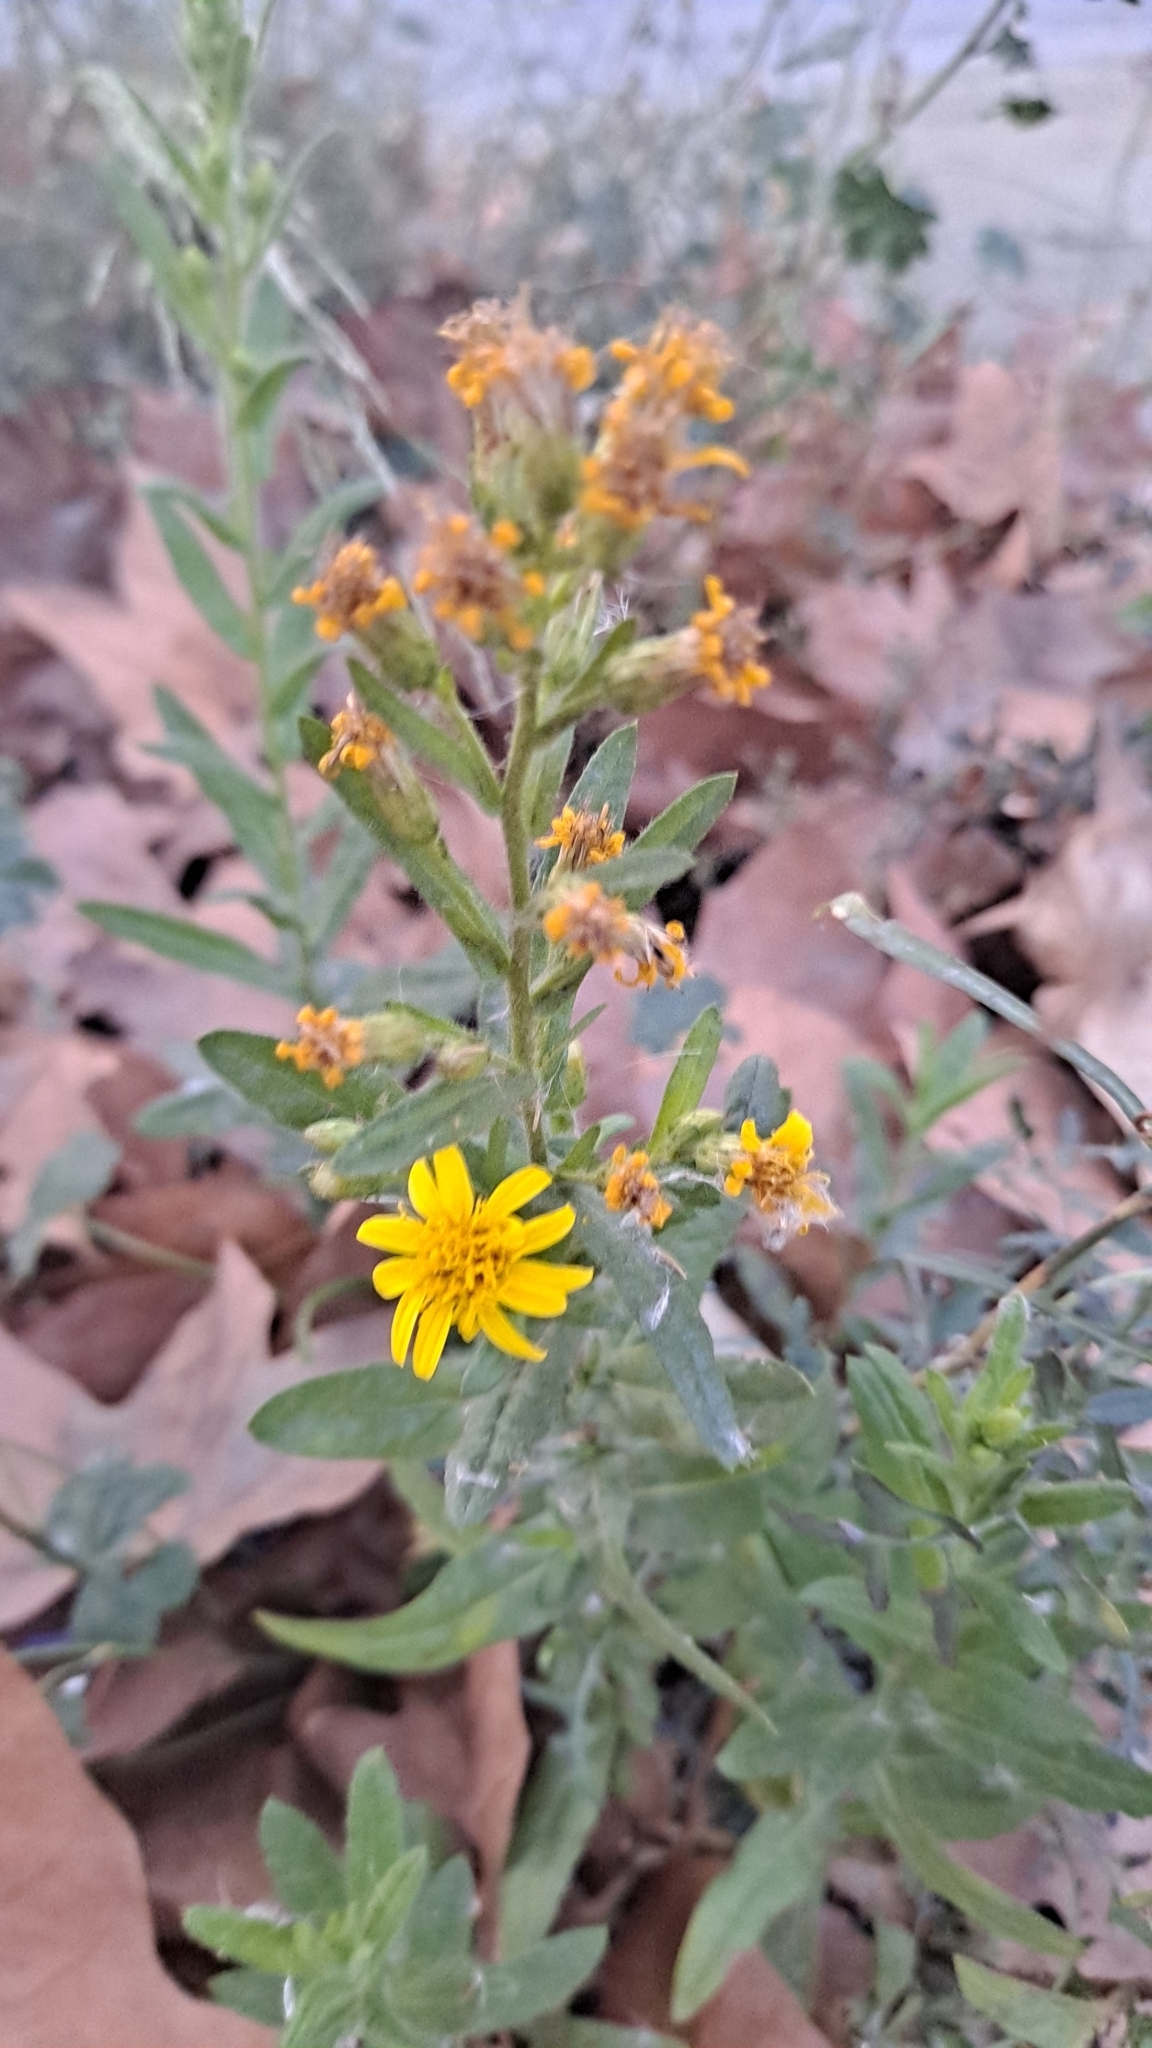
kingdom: Plantae
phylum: Tracheophyta
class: Magnoliopsida
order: Asterales
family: Asteraceae
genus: Dittrichia
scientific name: Dittrichia viscosa
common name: Woody fleabane
